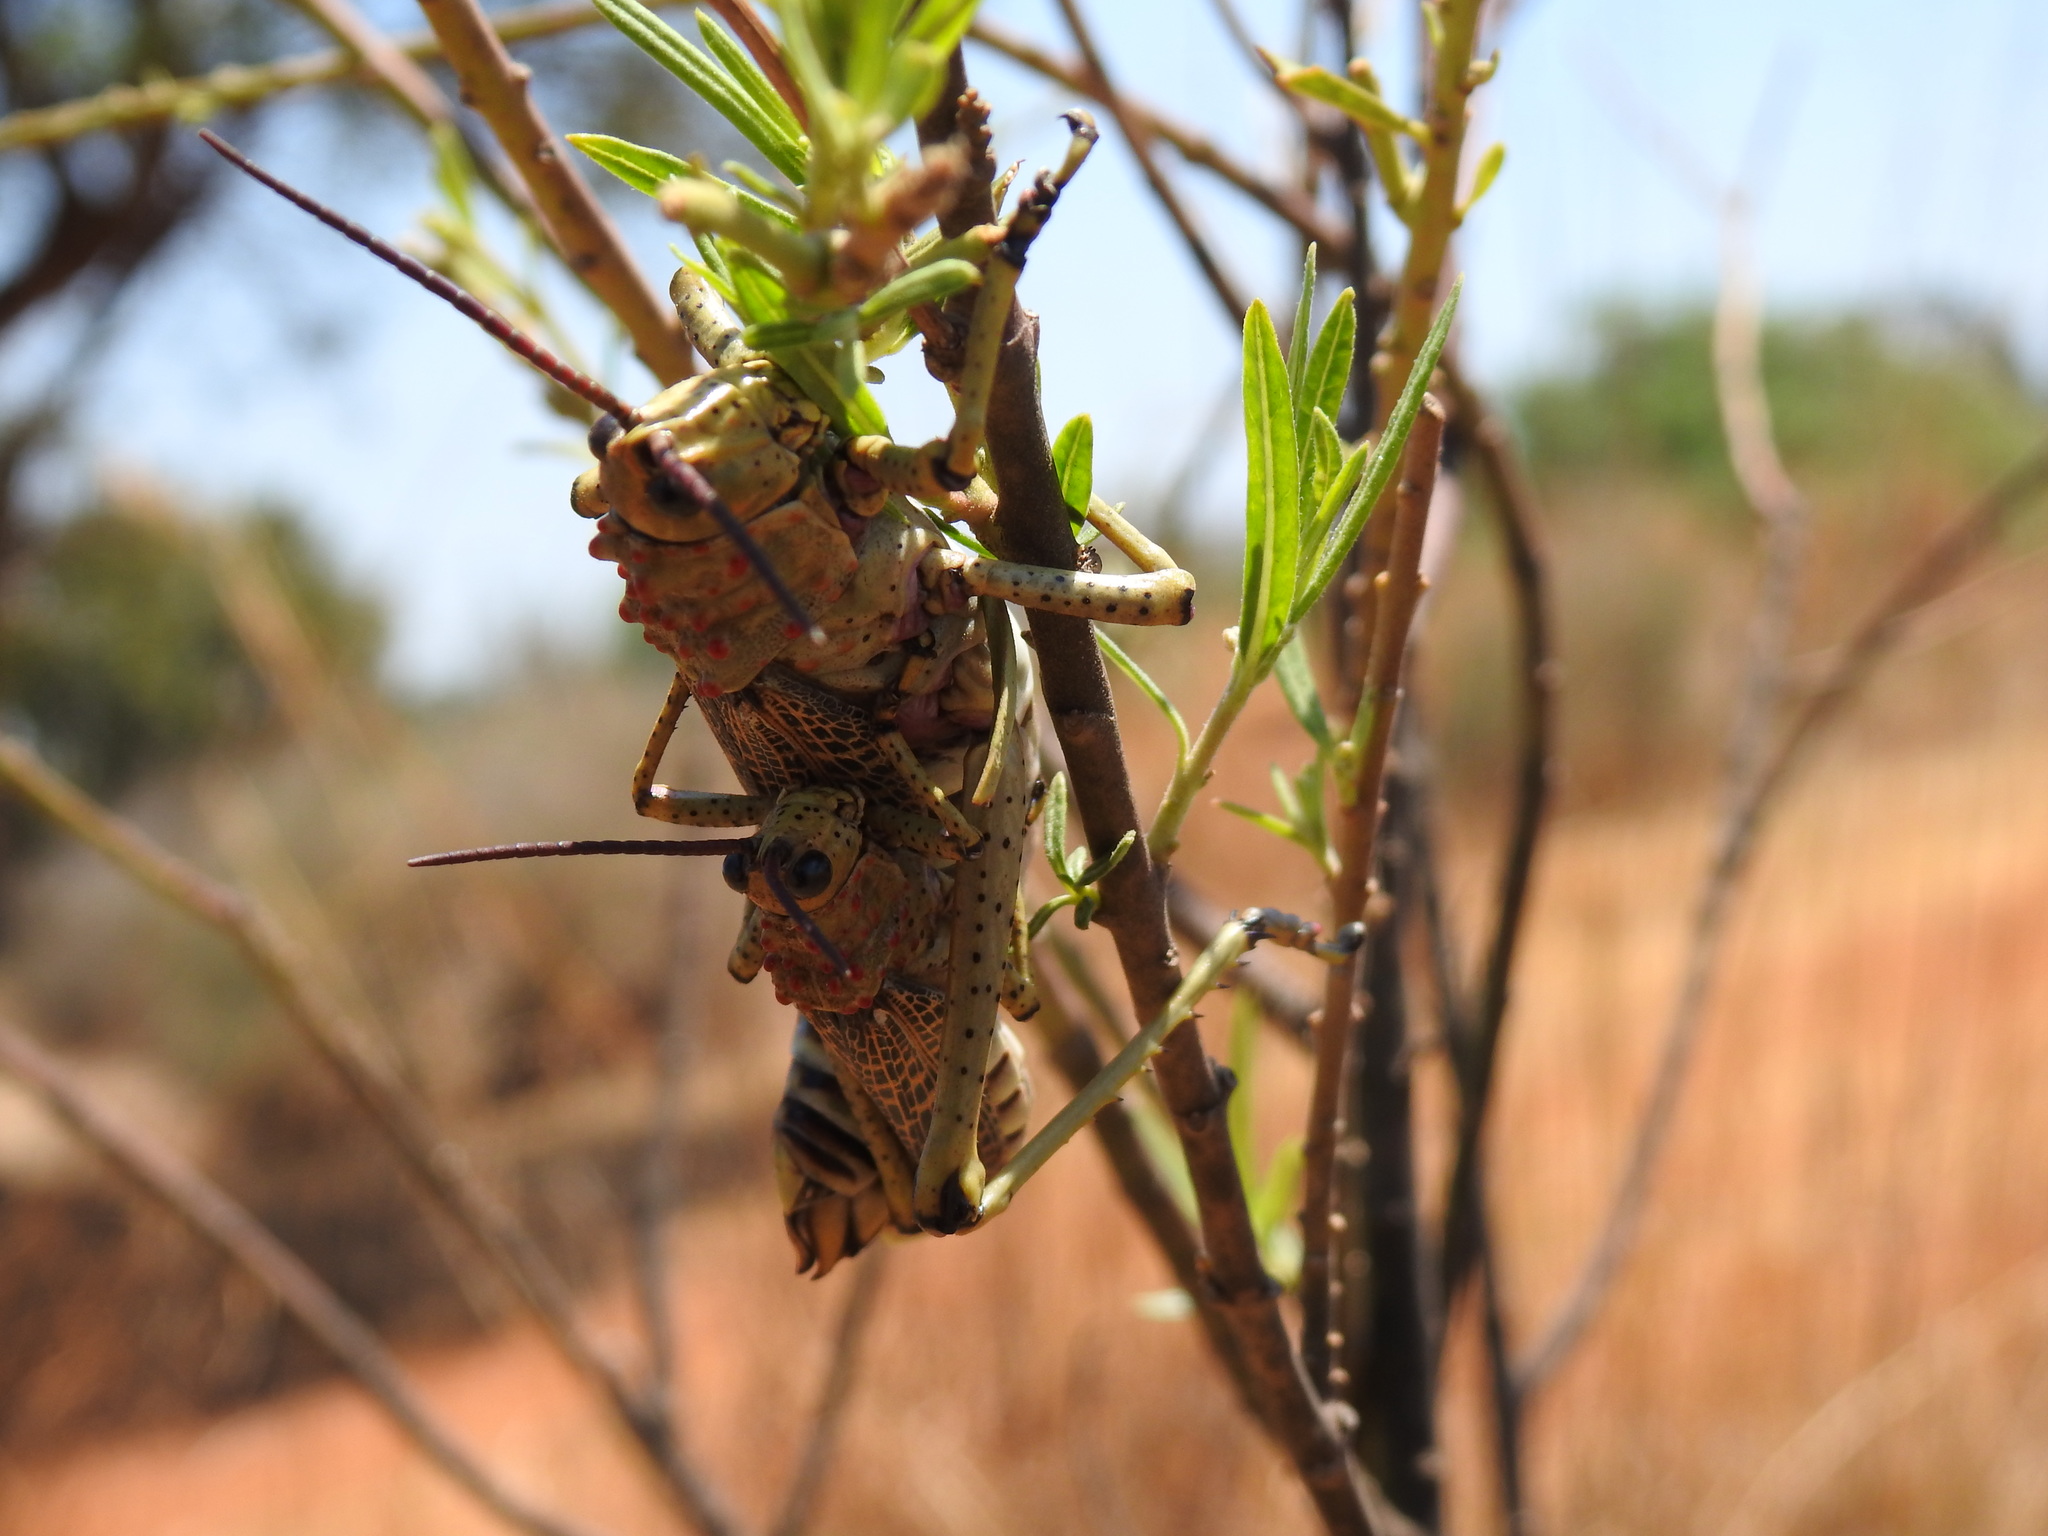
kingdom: Animalia
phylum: Arthropoda
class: Insecta
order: Orthoptera
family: Pyrgomorphidae
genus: Phymateus
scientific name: Phymateus baccatus
